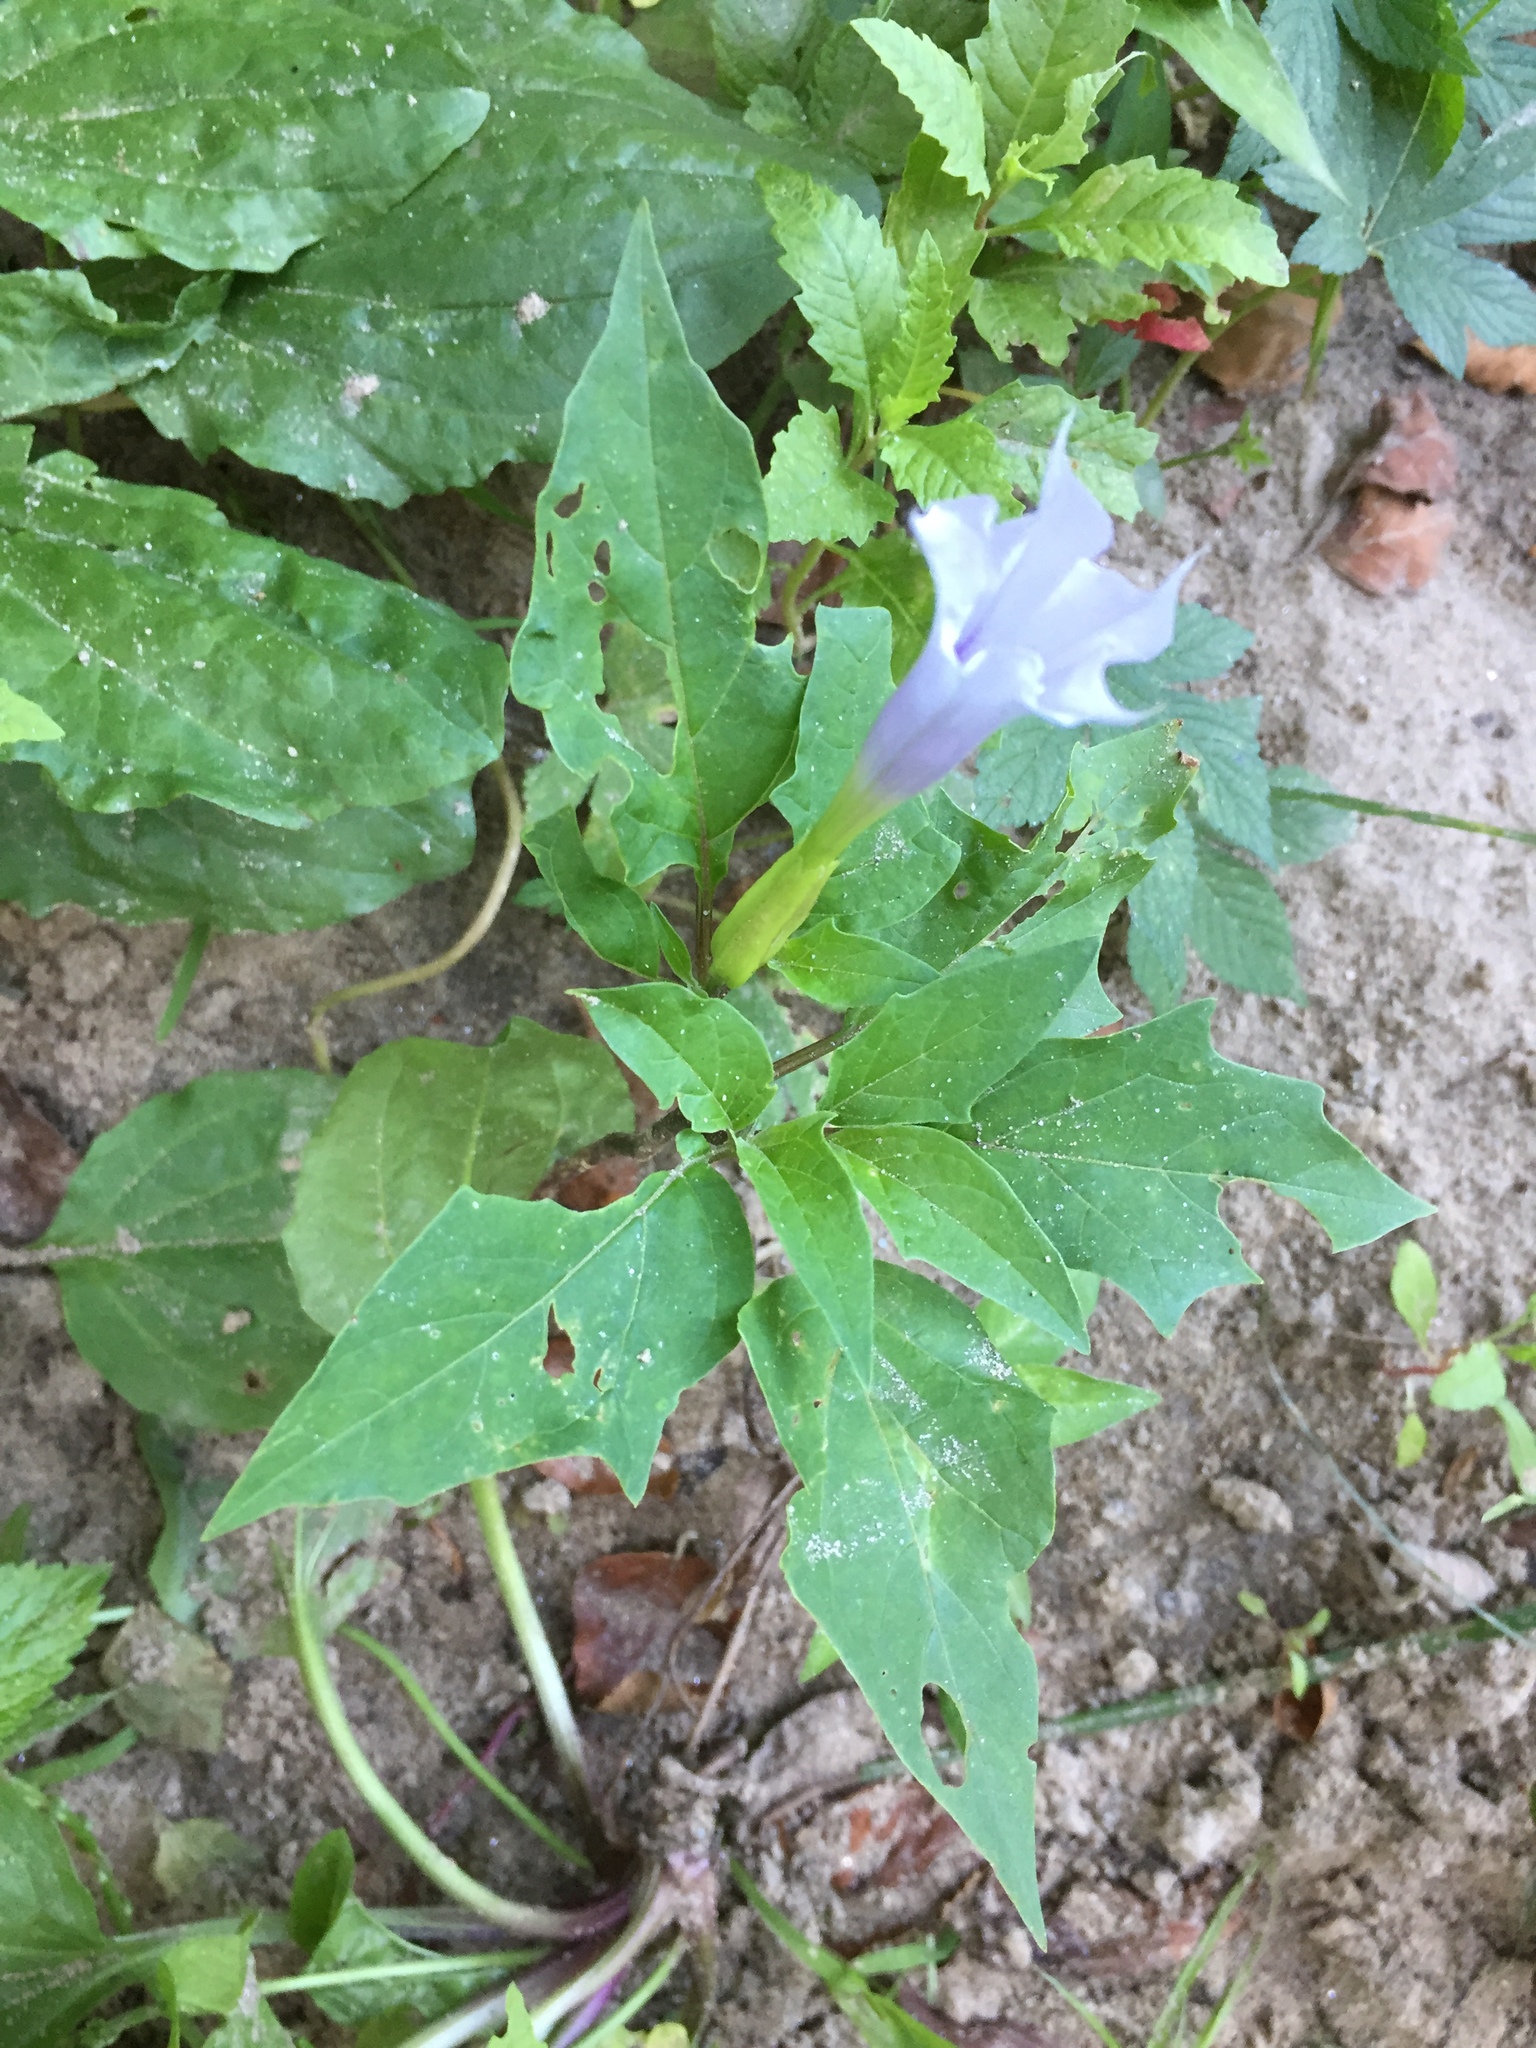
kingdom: Plantae
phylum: Tracheophyta
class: Magnoliopsida
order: Solanales
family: Solanaceae
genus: Datura
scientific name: Datura stramonium
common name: Thorn-apple
